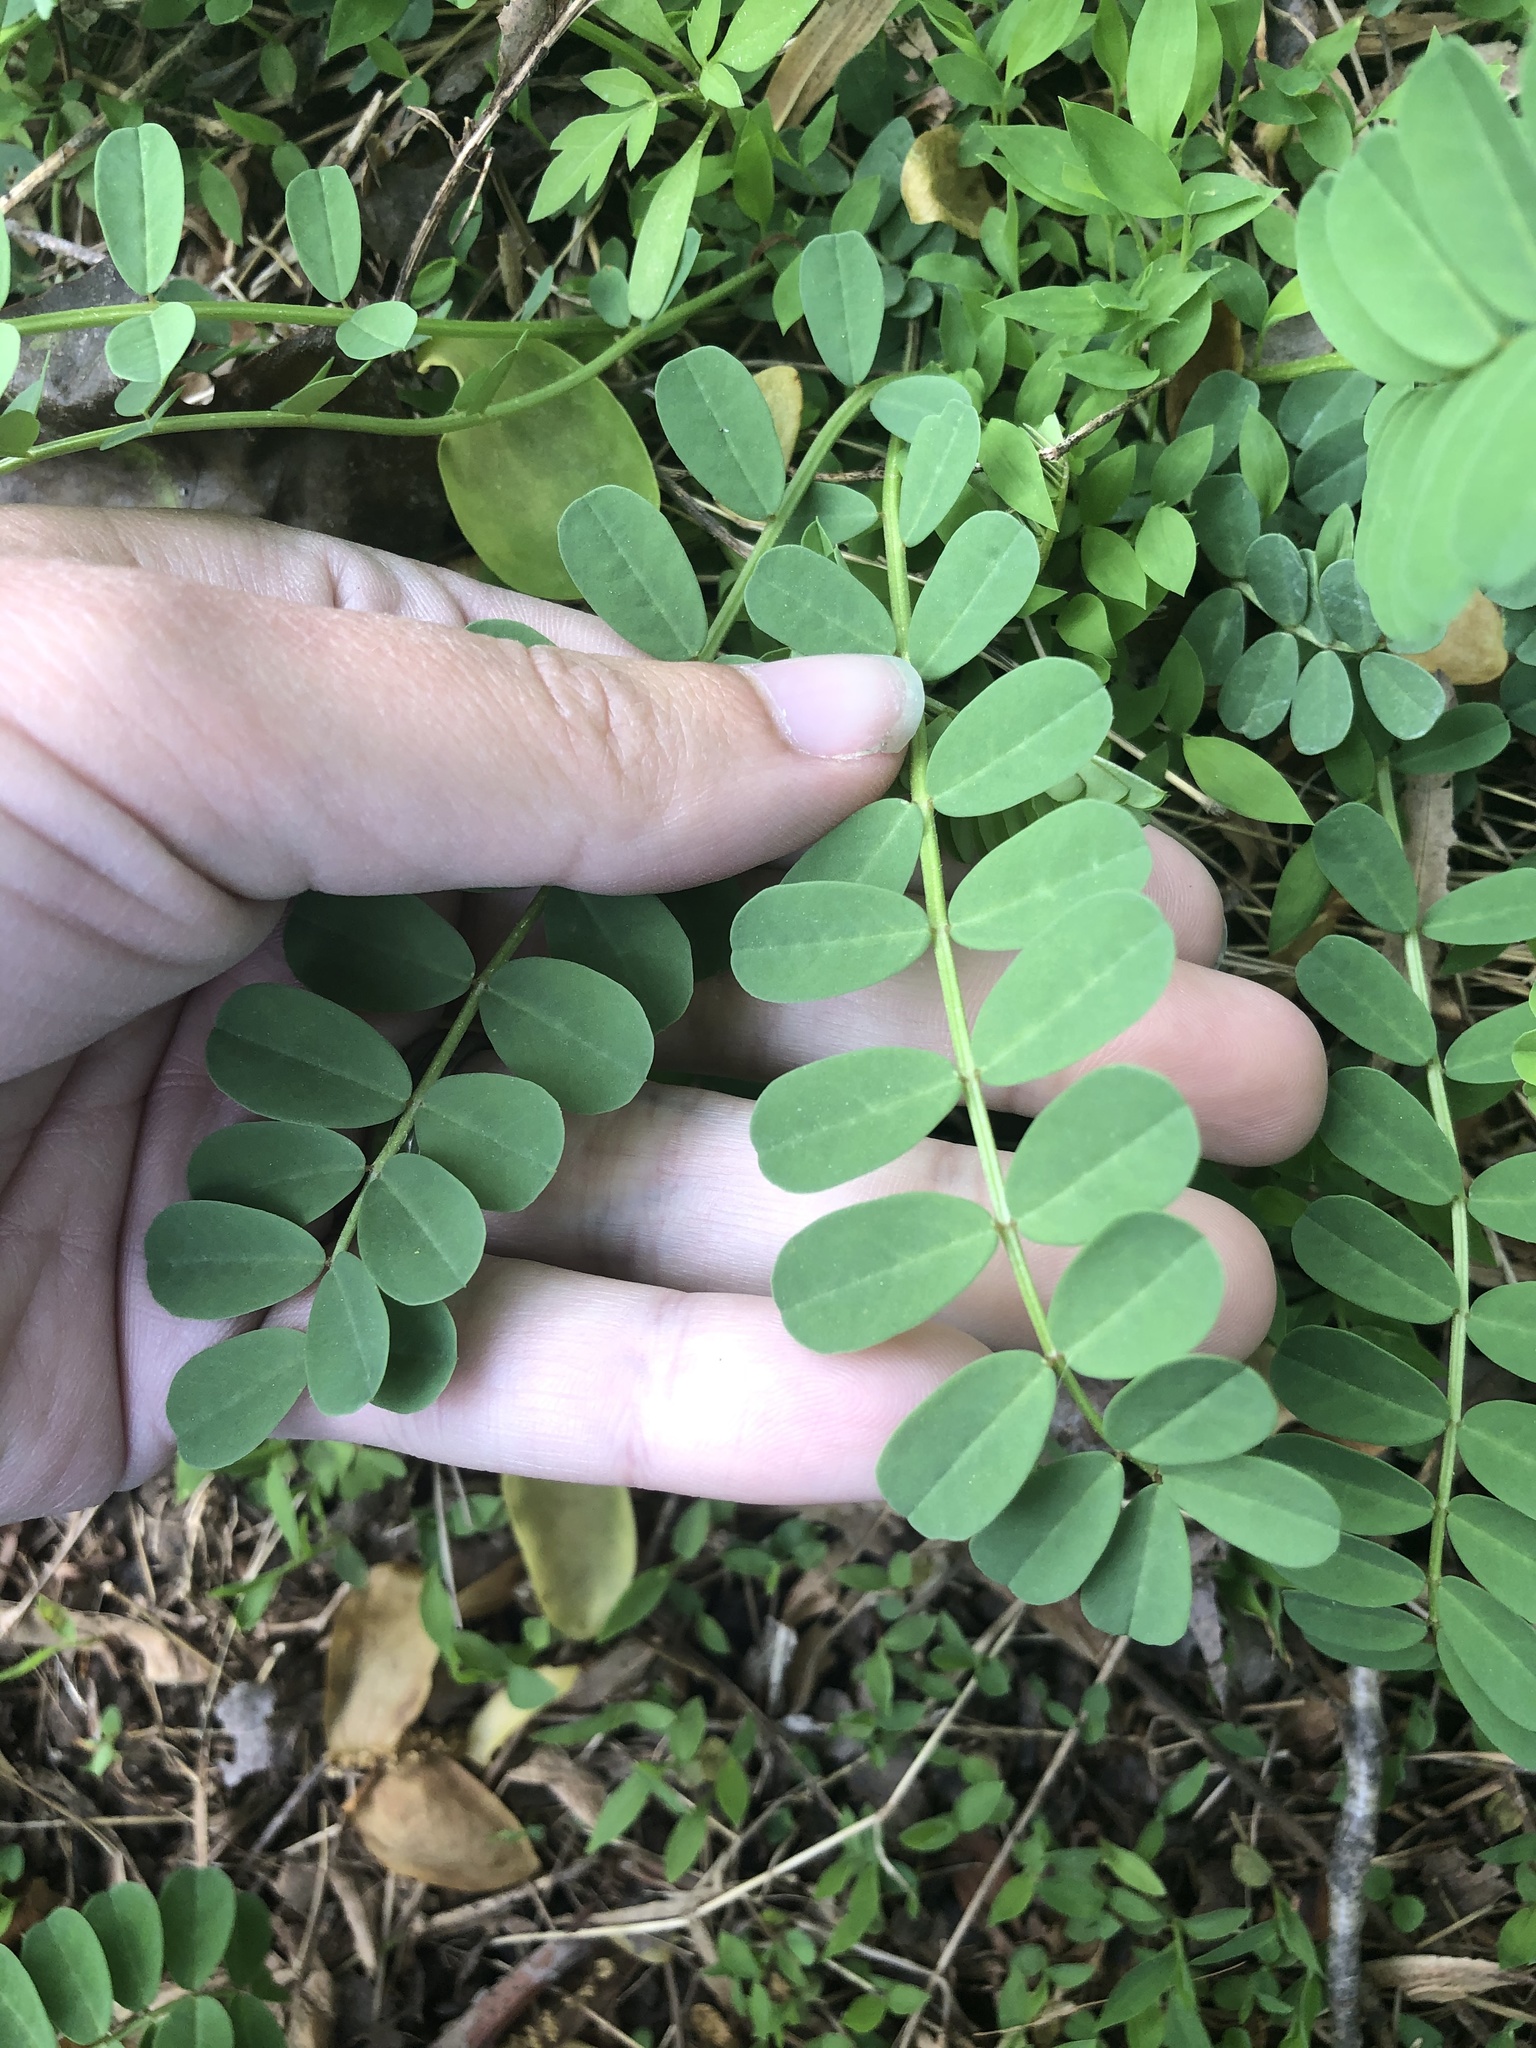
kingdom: Plantae
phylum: Tracheophyta
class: Magnoliopsida
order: Fabales
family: Fabaceae
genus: Coronilla
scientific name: Coronilla varia
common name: Crownvetch
